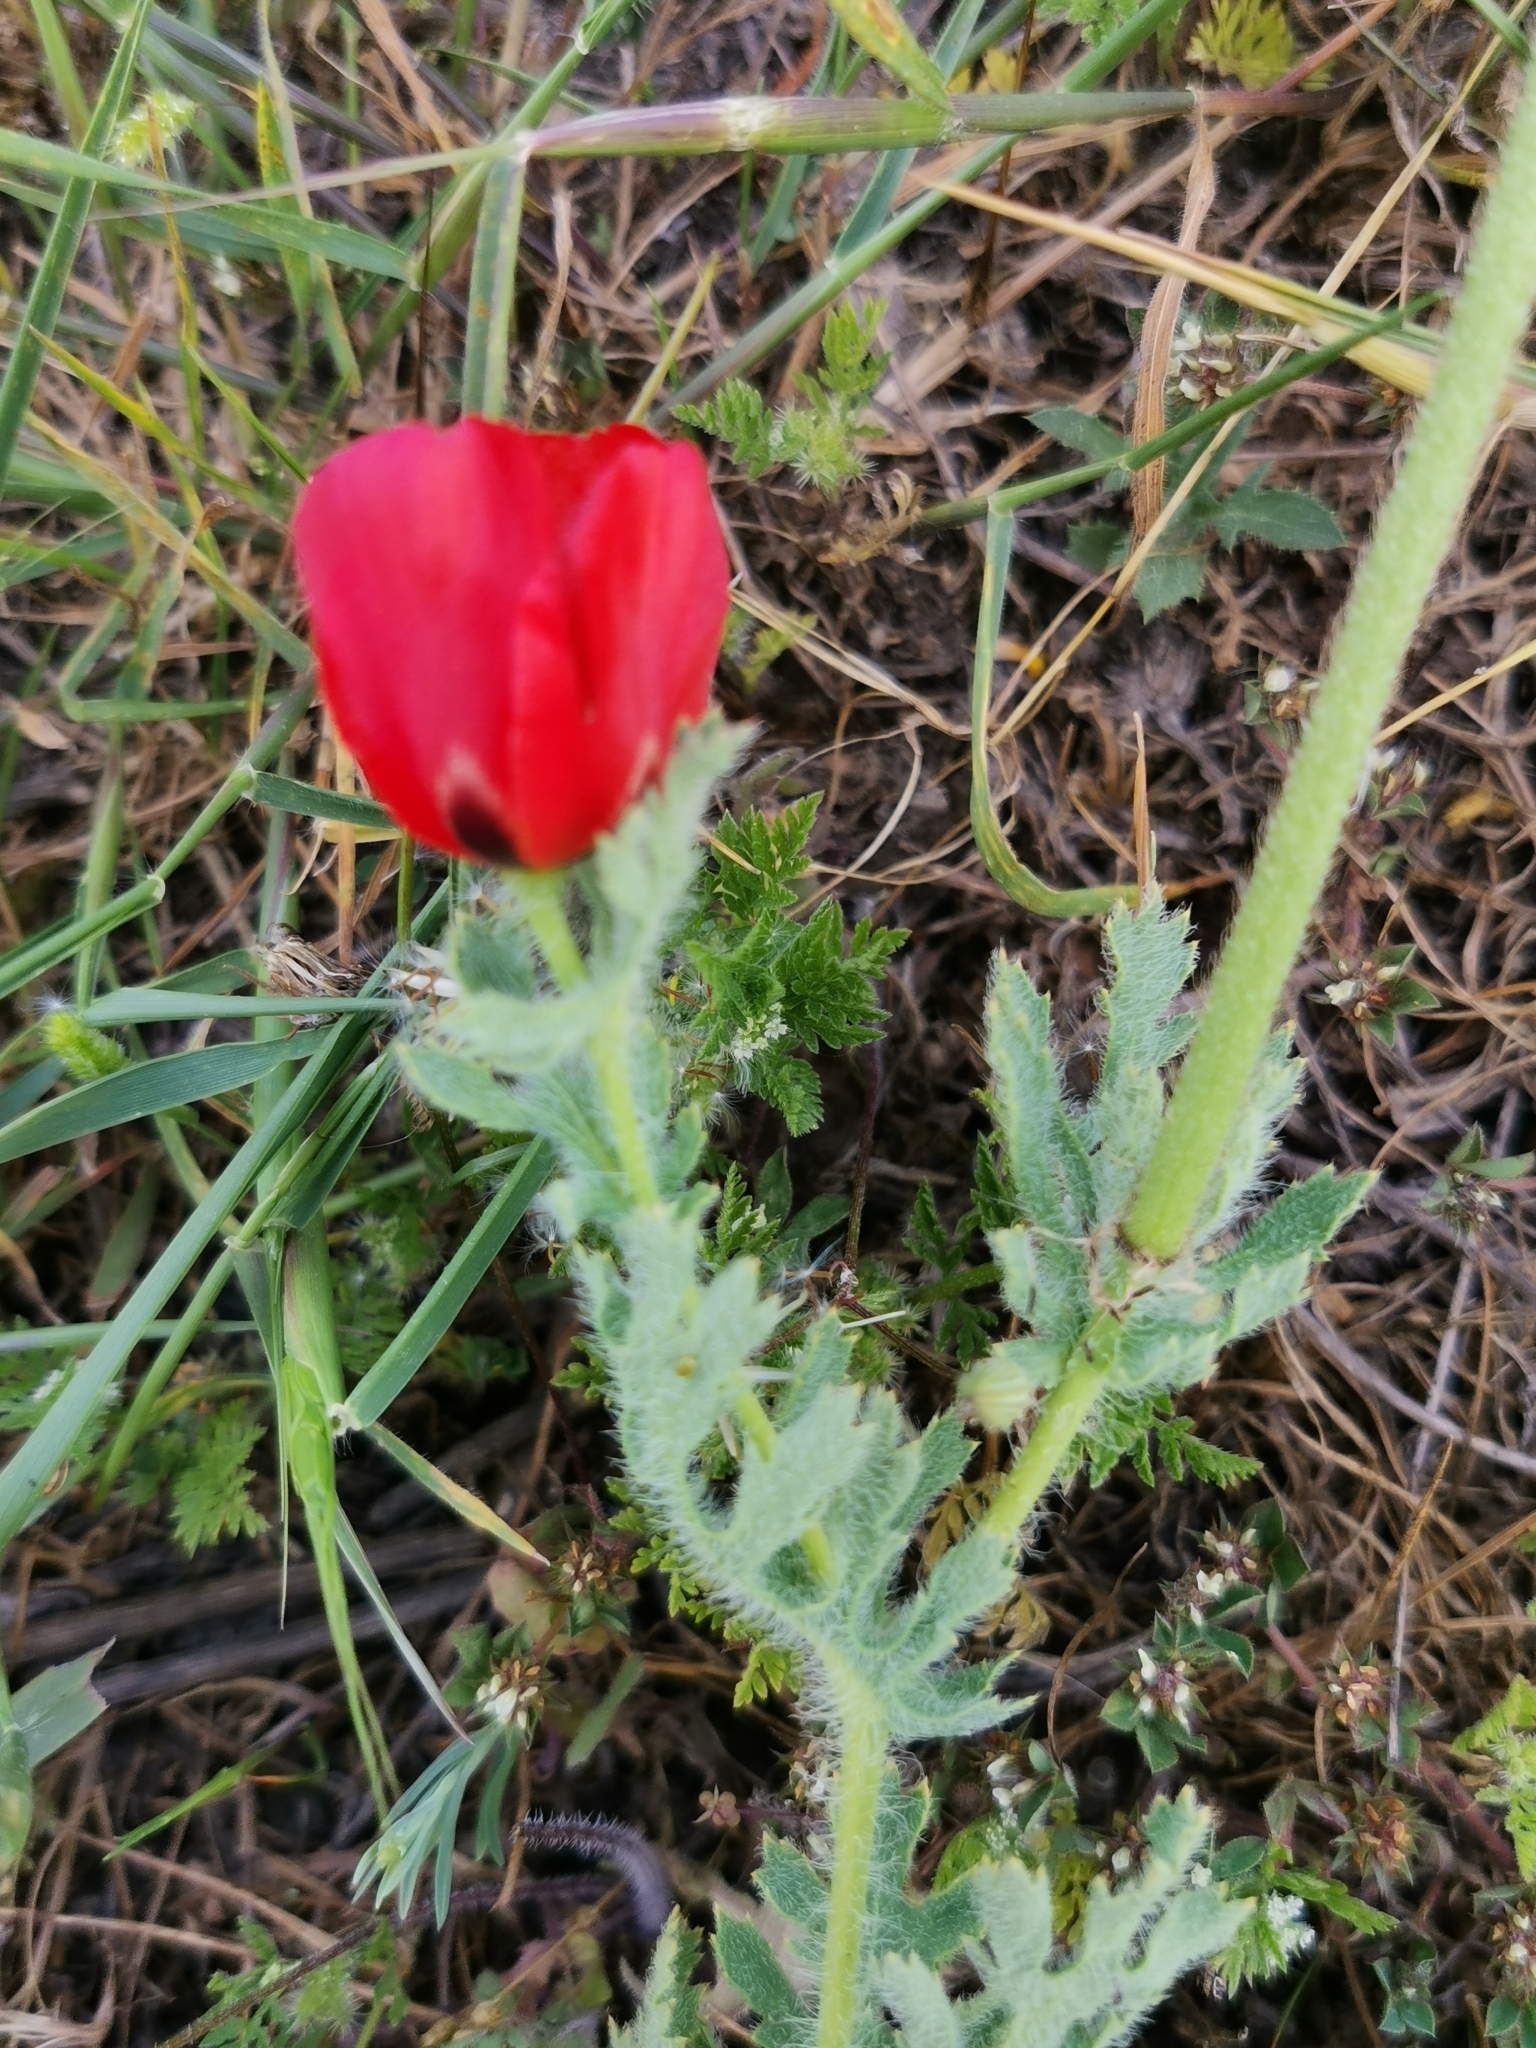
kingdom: Plantae
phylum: Tracheophyta
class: Magnoliopsida
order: Ranunculales
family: Papaveraceae
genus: Glaucium
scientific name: Glaucium corniculatum
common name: Red horned-poppy
